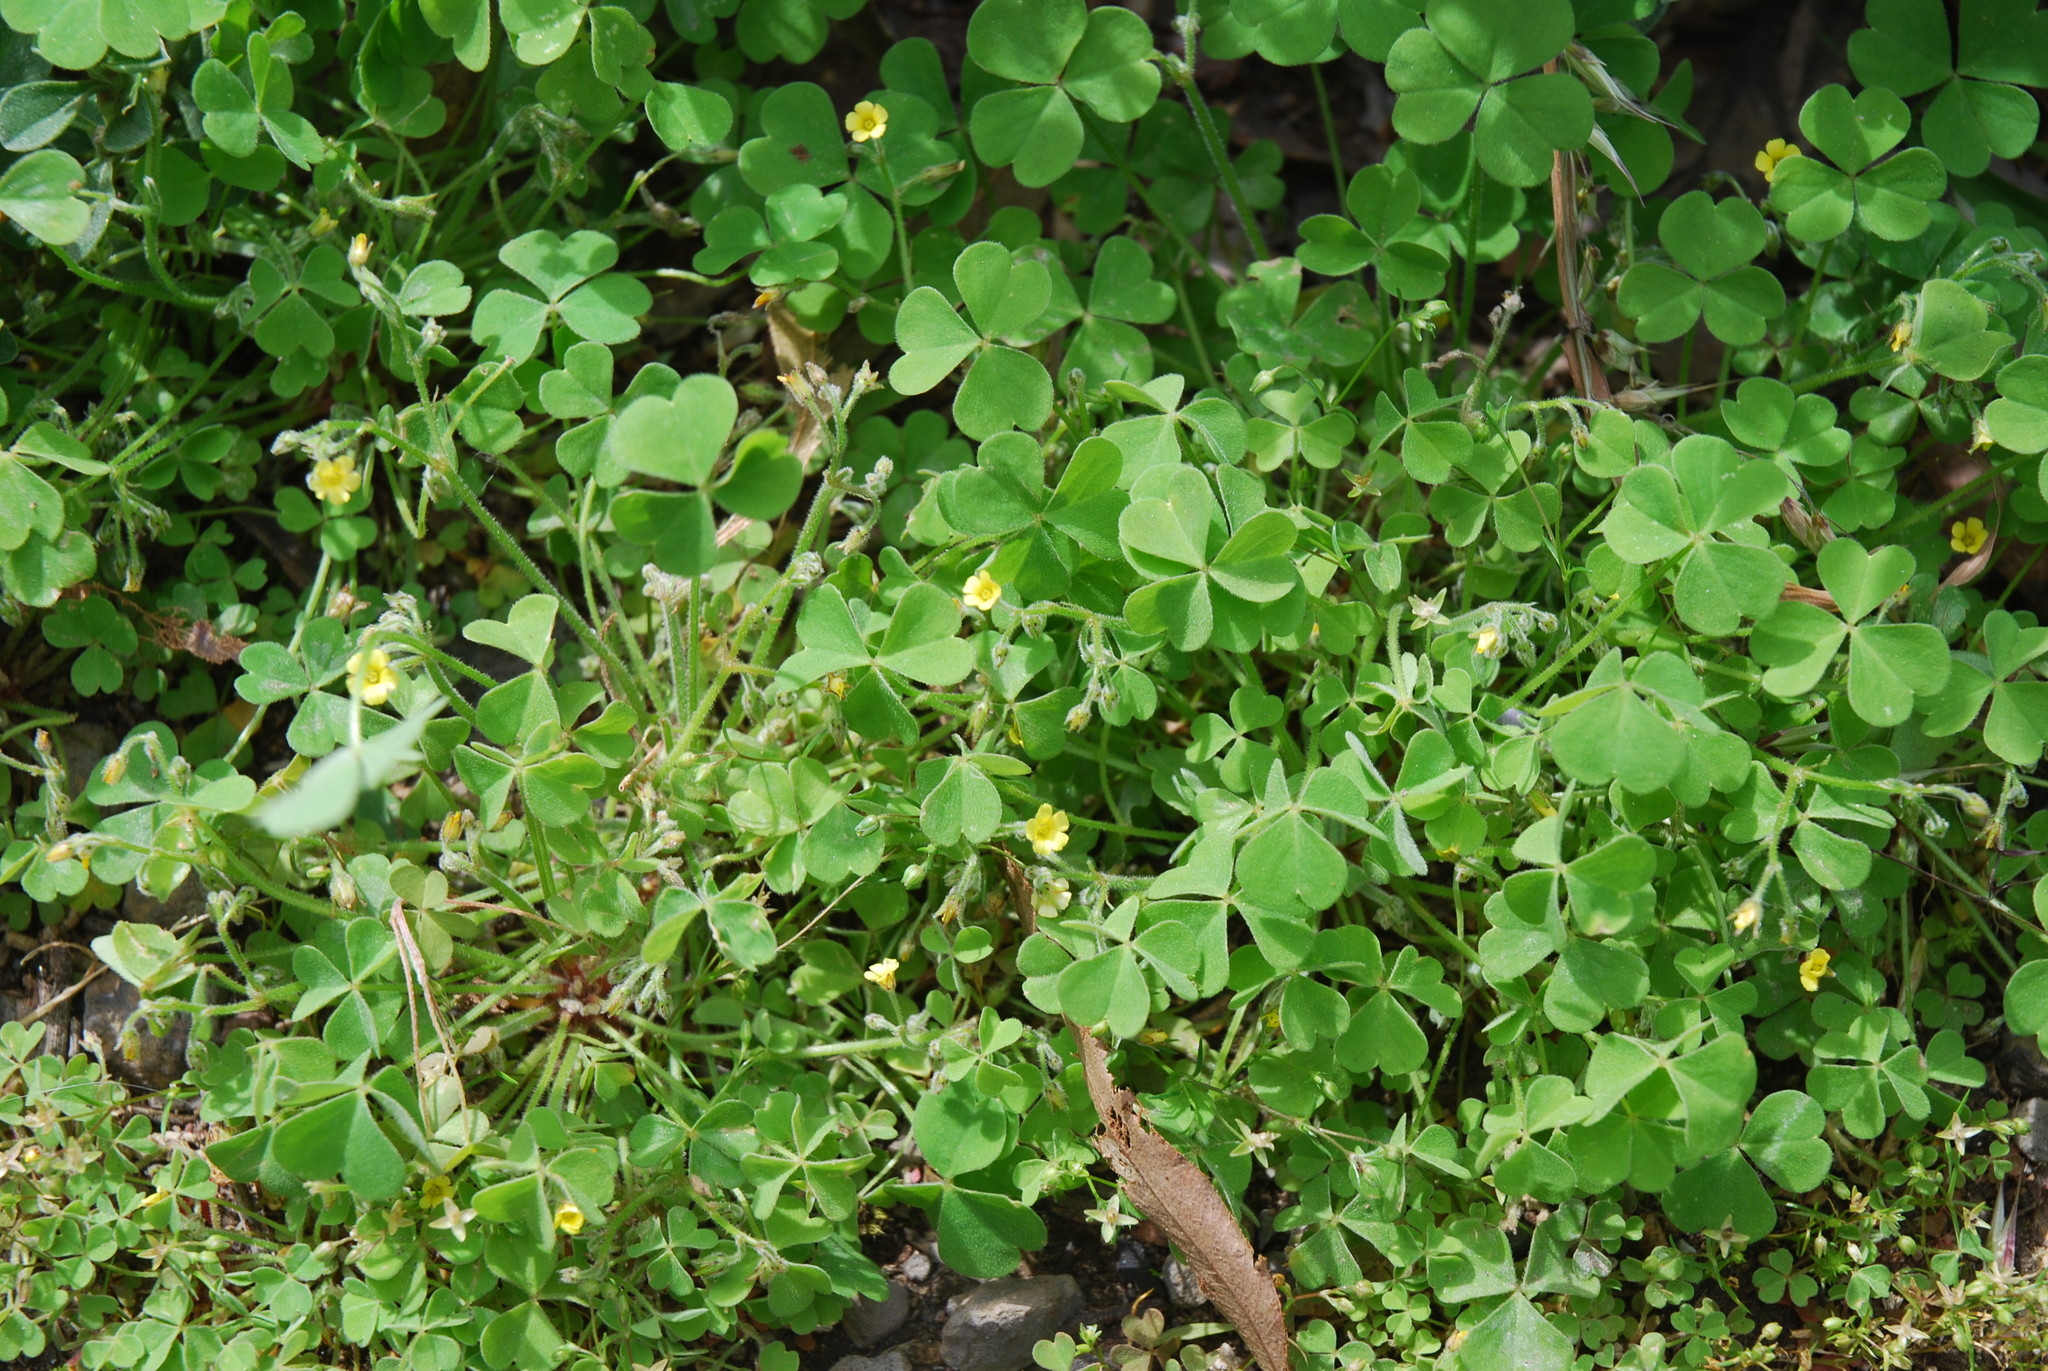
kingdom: Plantae
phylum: Tracheophyta
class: Magnoliopsida
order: Oxalidales
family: Oxalidaceae
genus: Oxalis
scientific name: Oxalis laxa
